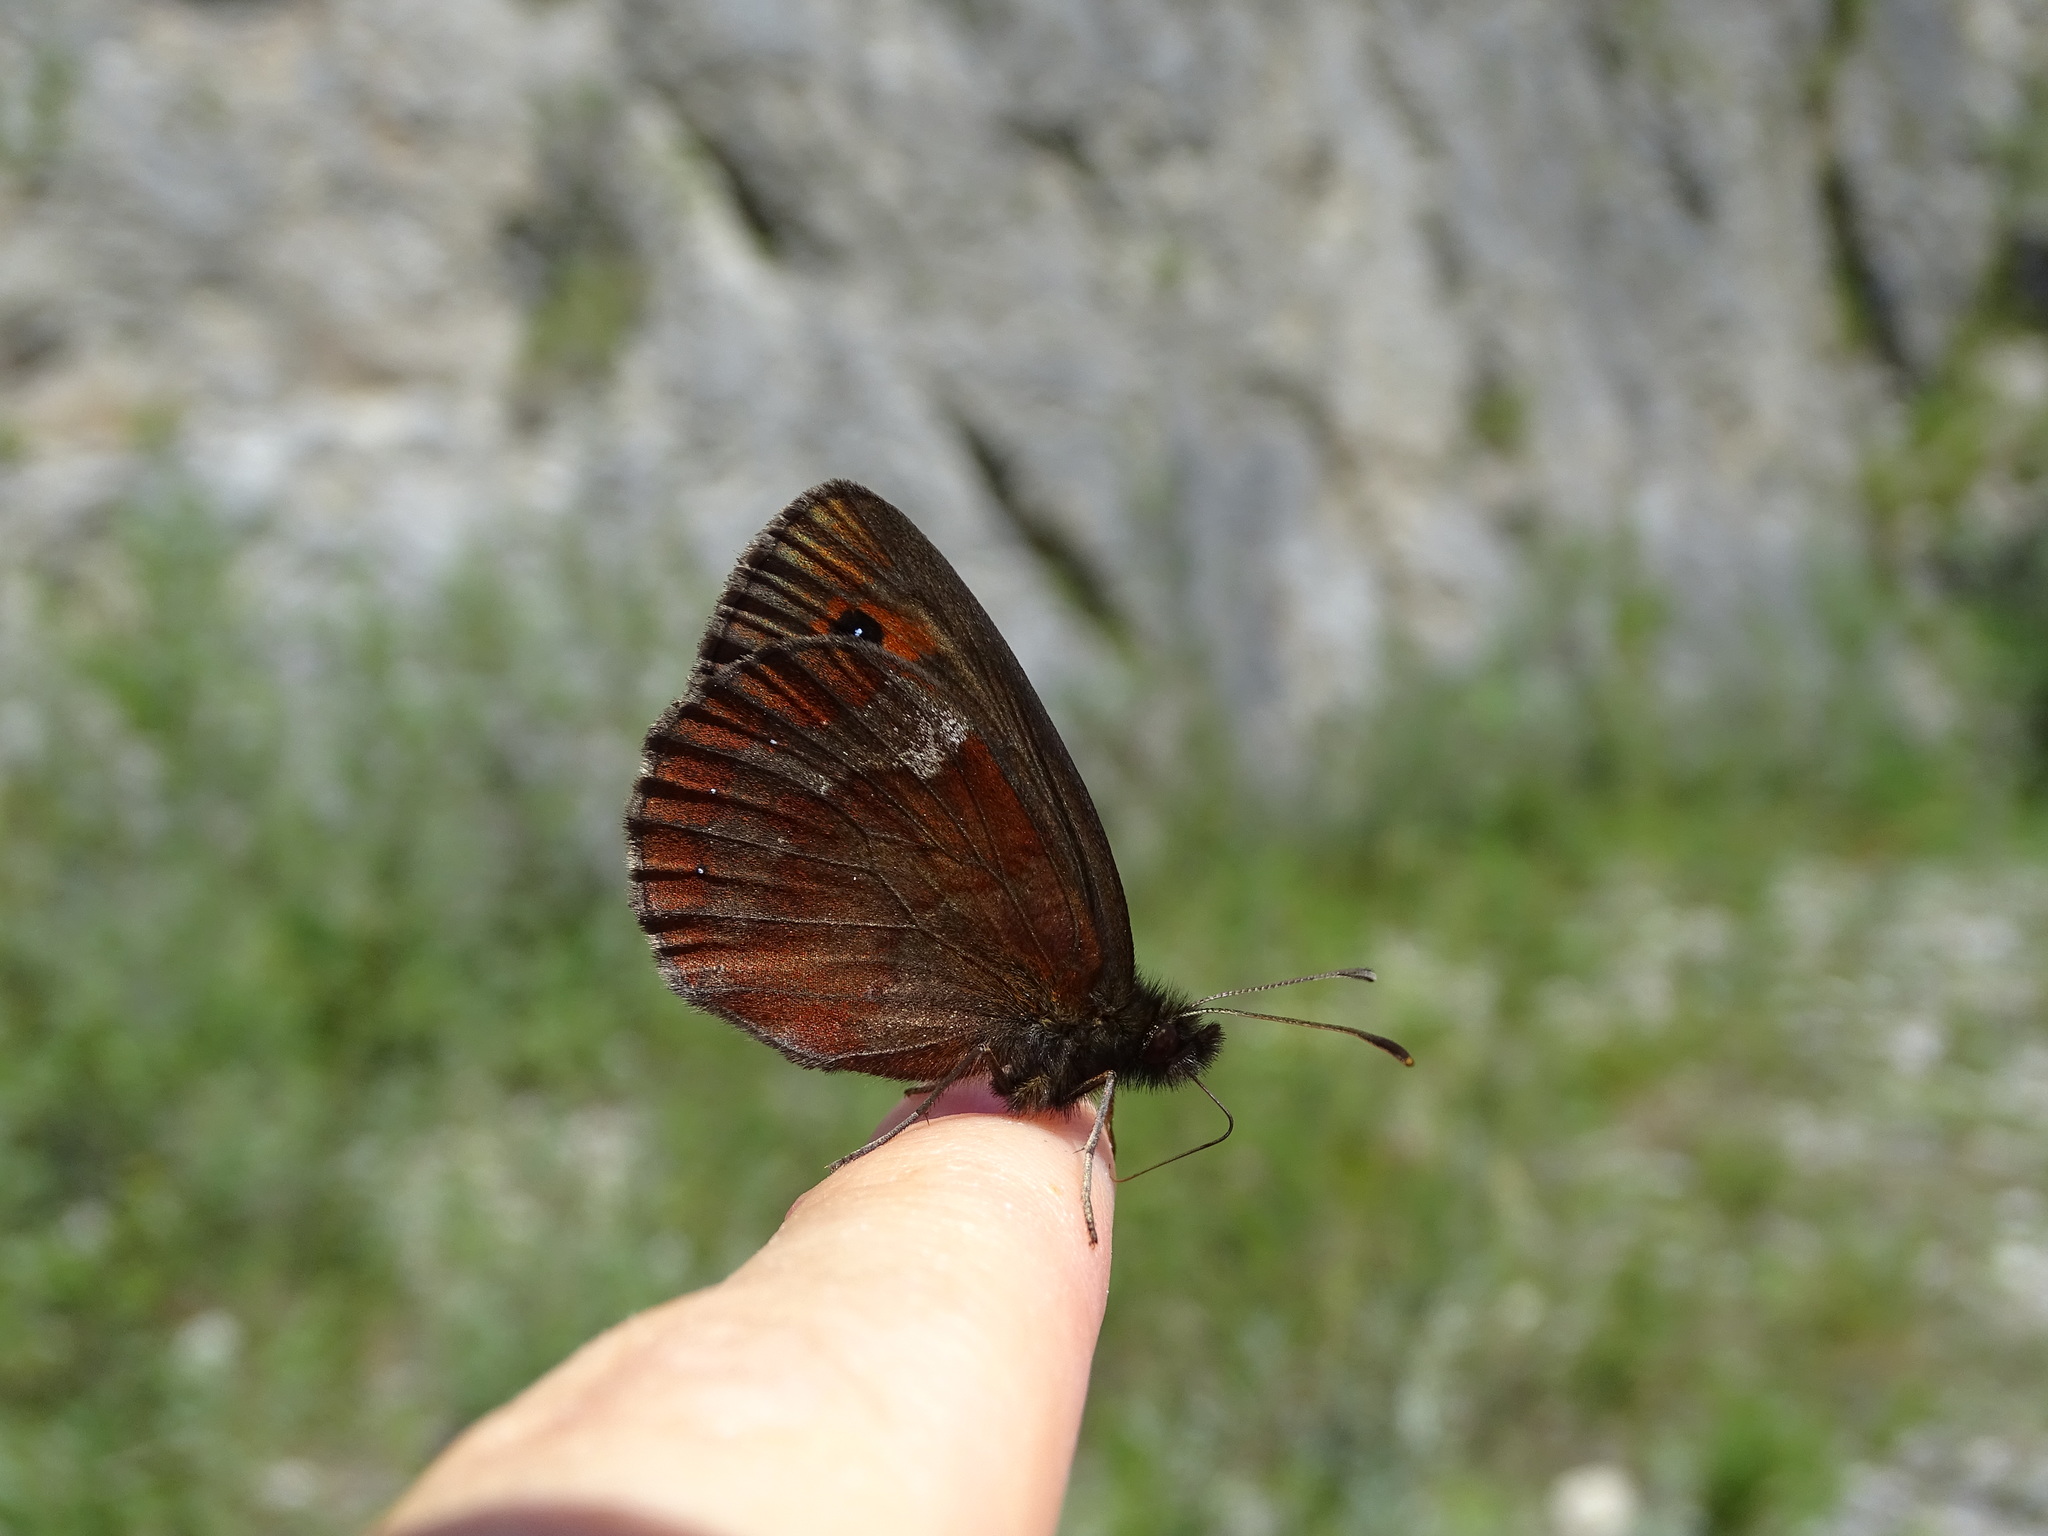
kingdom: Animalia
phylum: Arthropoda
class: Insecta
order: Lepidoptera
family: Nymphalidae
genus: Erebia
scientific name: Erebia aethiops
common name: Scotch argus
